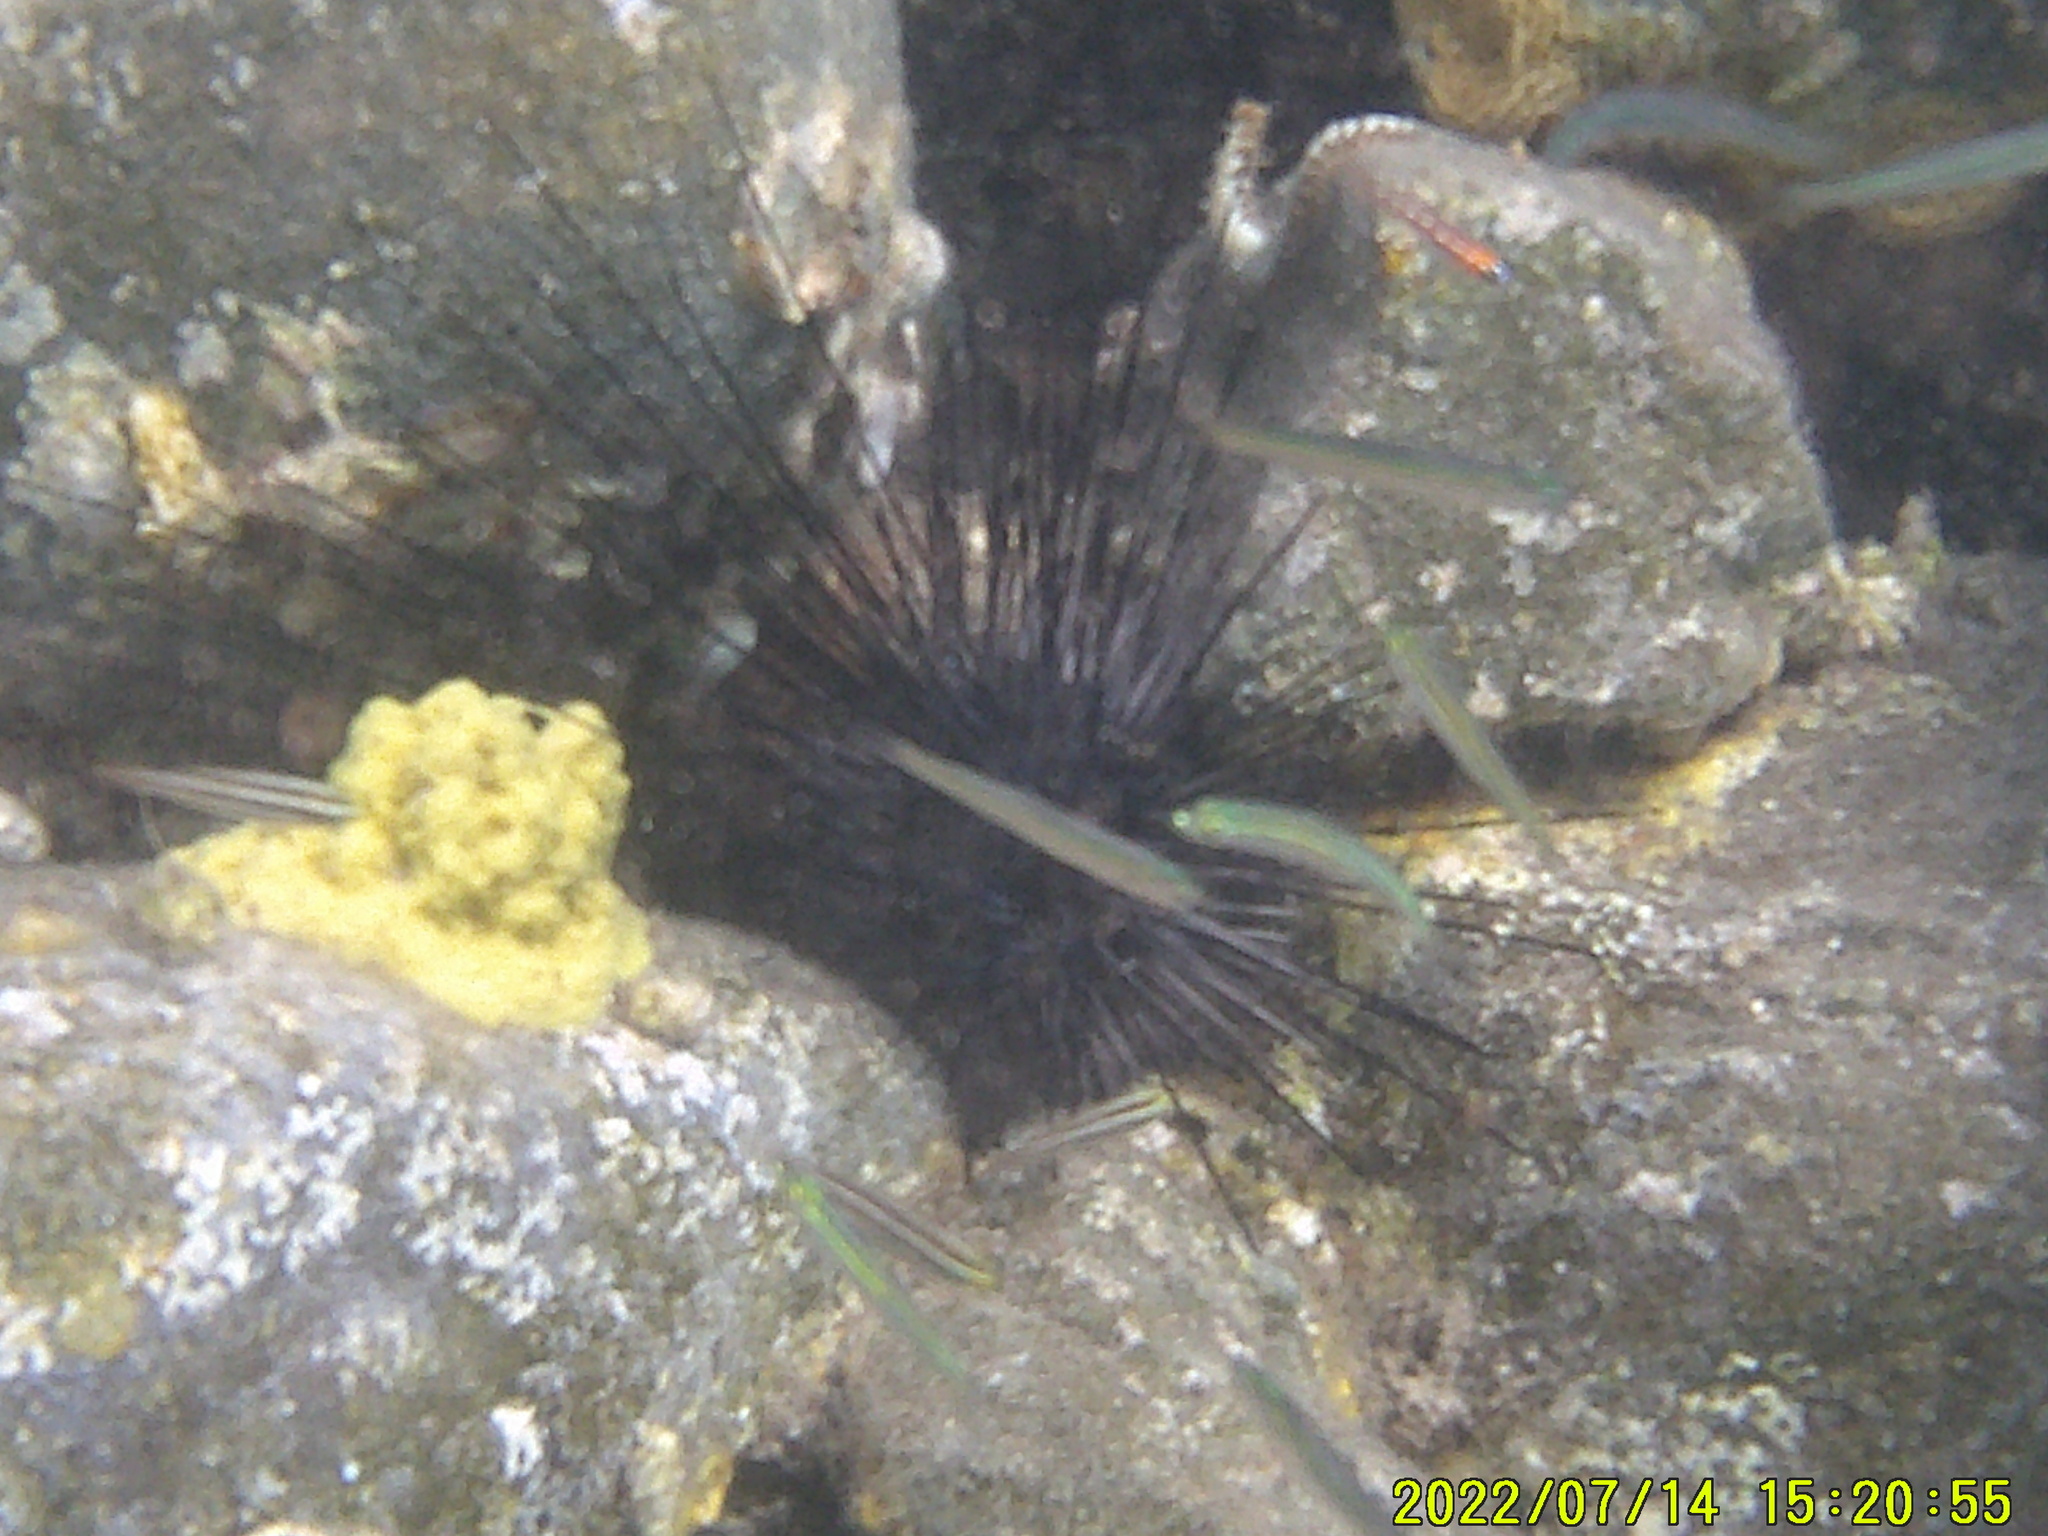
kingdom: Animalia
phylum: Echinodermata
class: Echinoidea
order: Diadematoida
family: Diadematidae
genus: Diadema
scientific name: Diadema antillarum
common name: Spiny urchin
